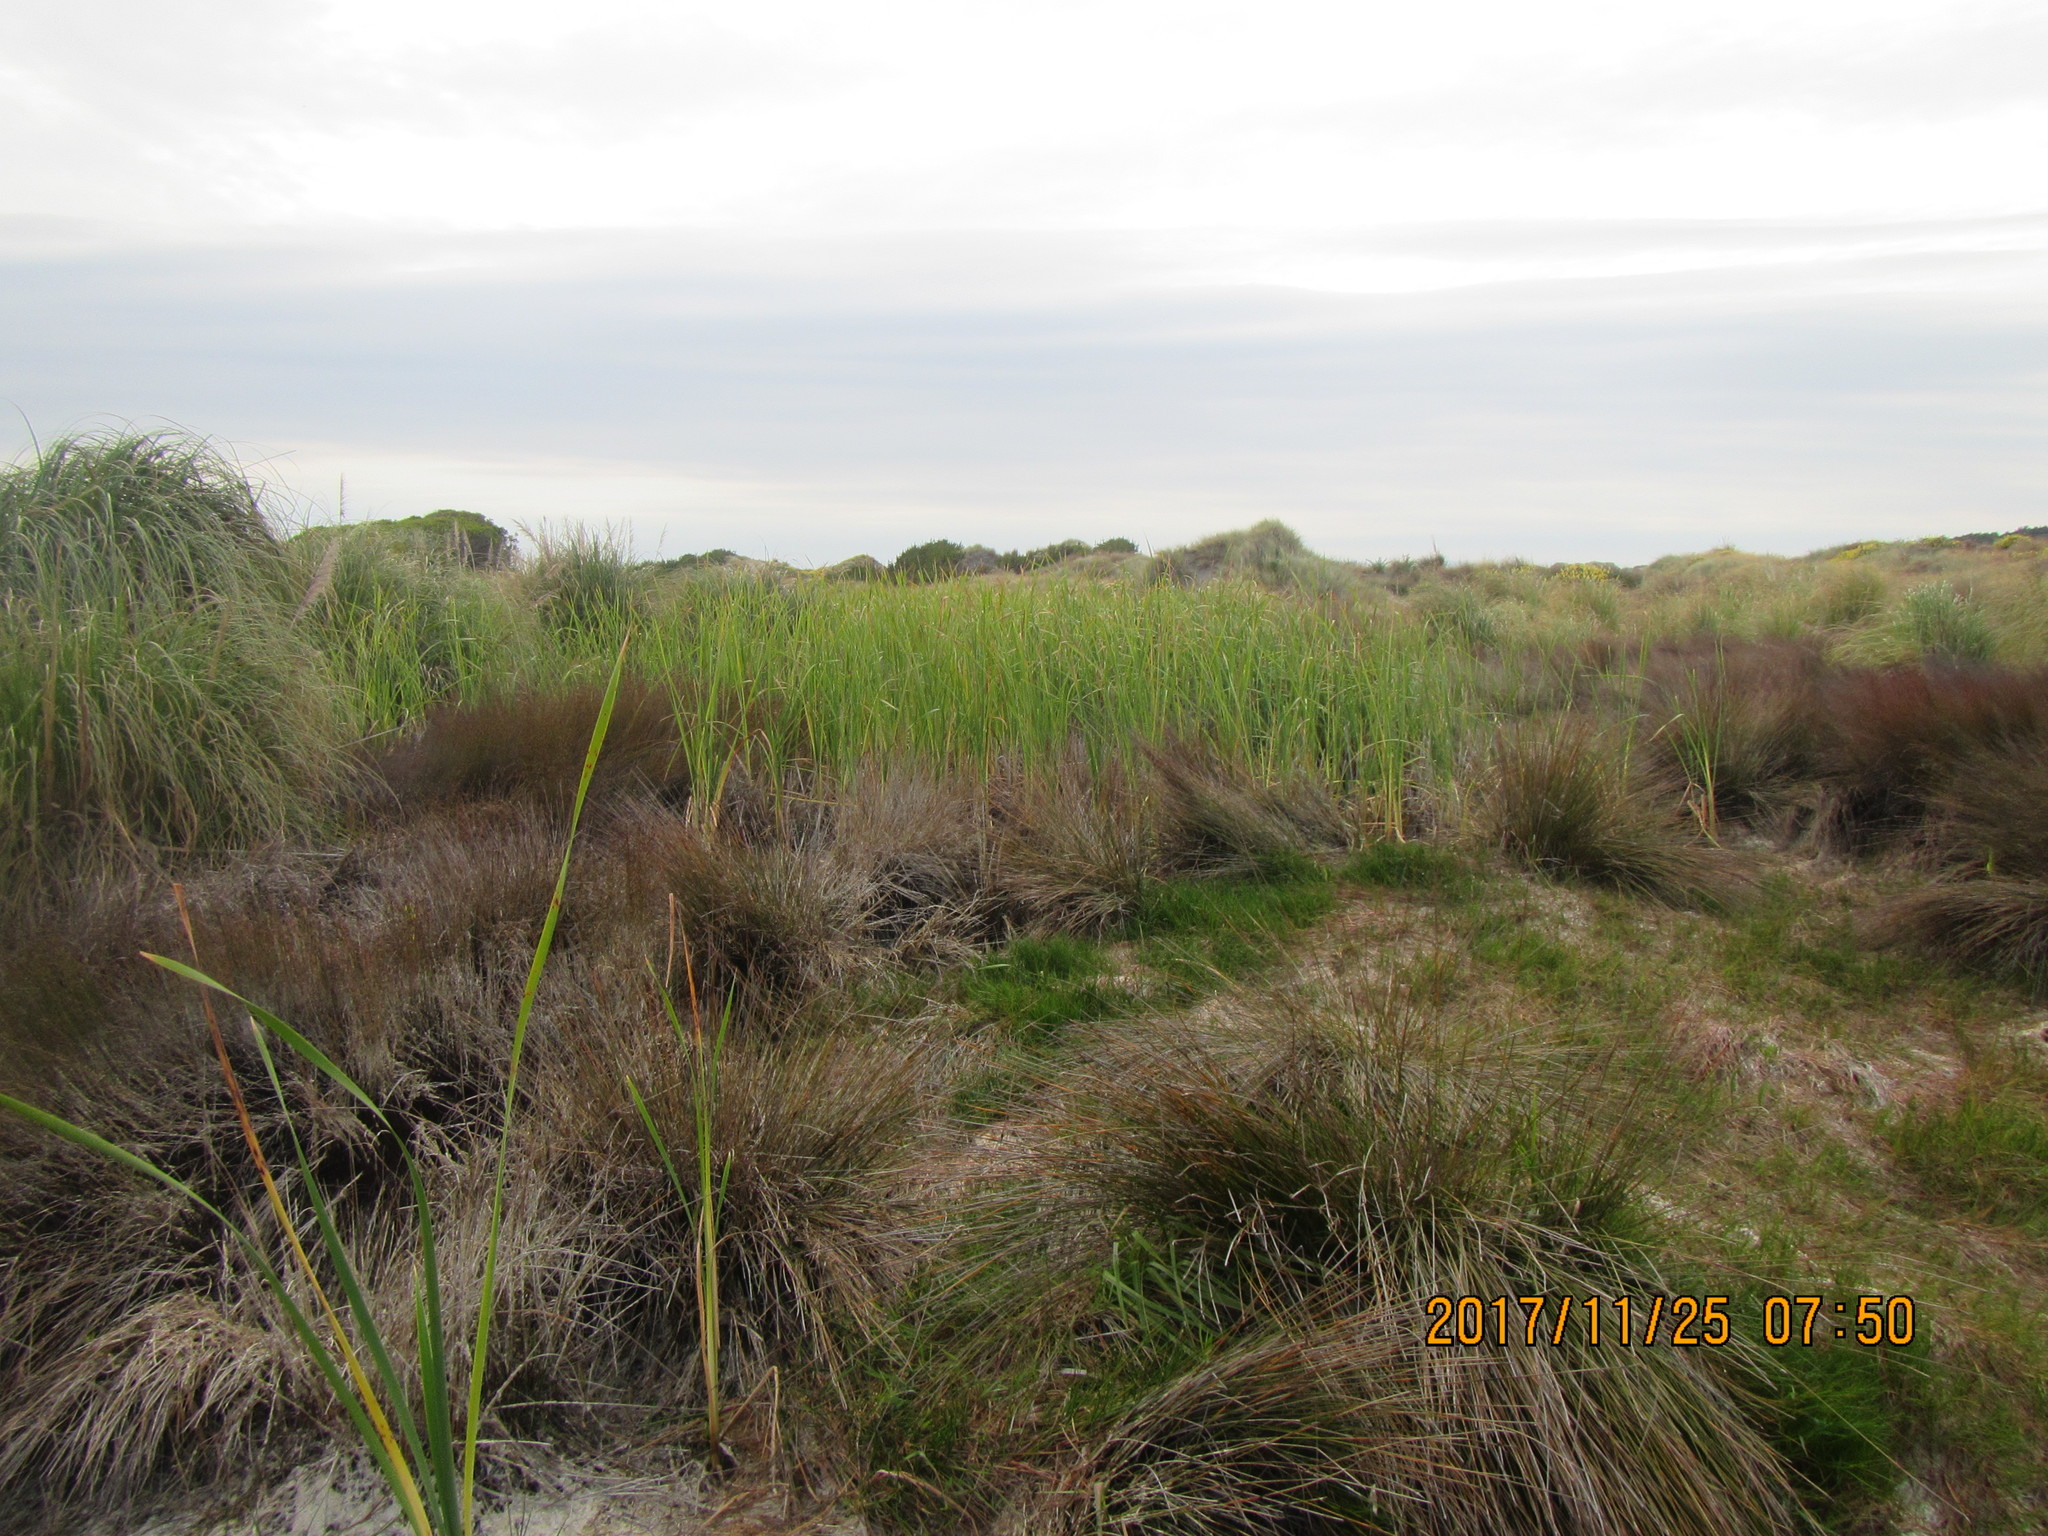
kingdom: Plantae
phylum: Tracheophyta
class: Liliopsida
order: Poales
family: Typhaceae
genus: Typha
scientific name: Typha orientalis
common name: Bullrush
